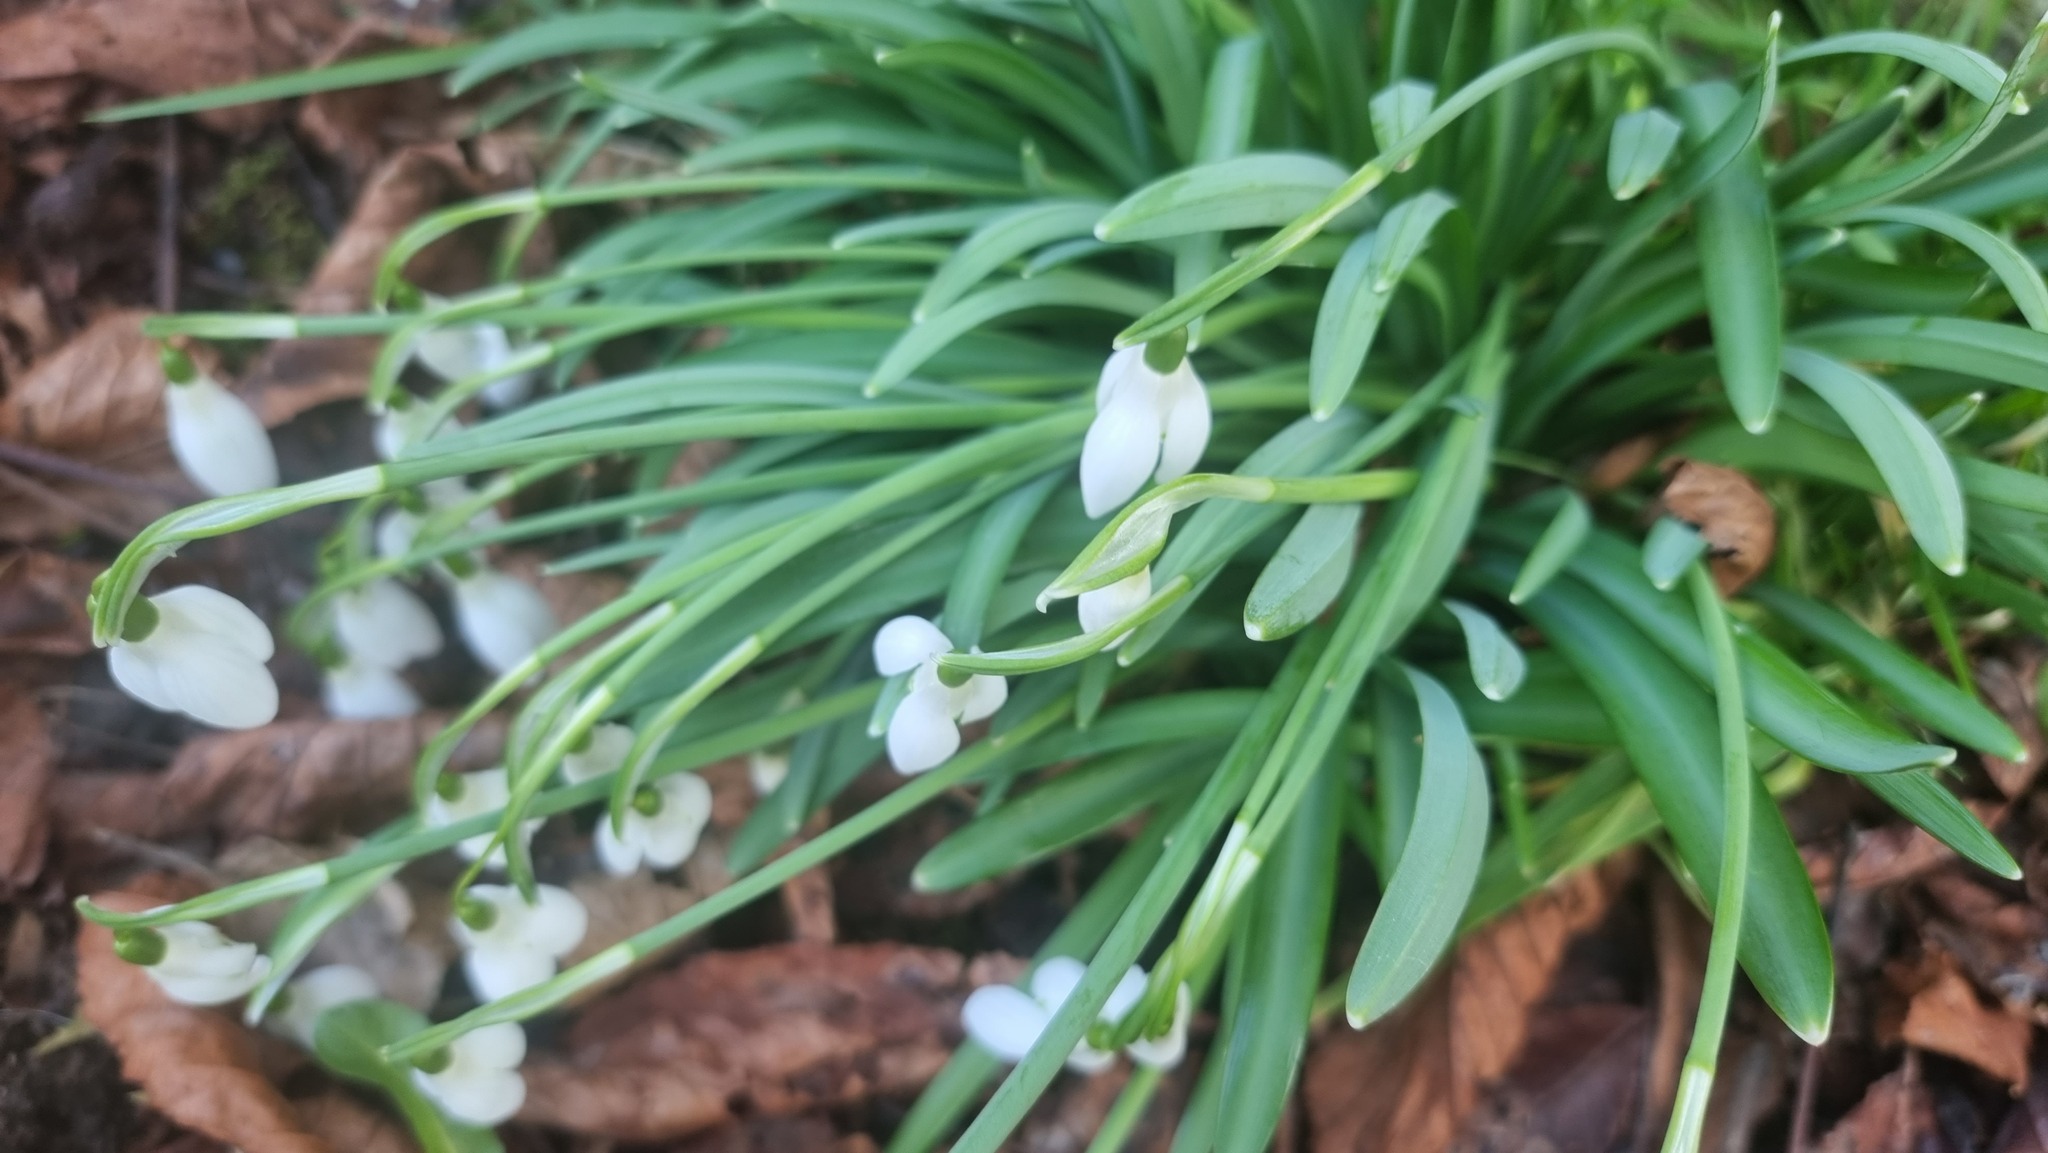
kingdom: Plantae
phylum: Tracheophyta
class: Liliopsida
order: Asparagales
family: Amaryllidaceae
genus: Galanthus
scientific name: Galanthus nivalis
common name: Snowdrop
